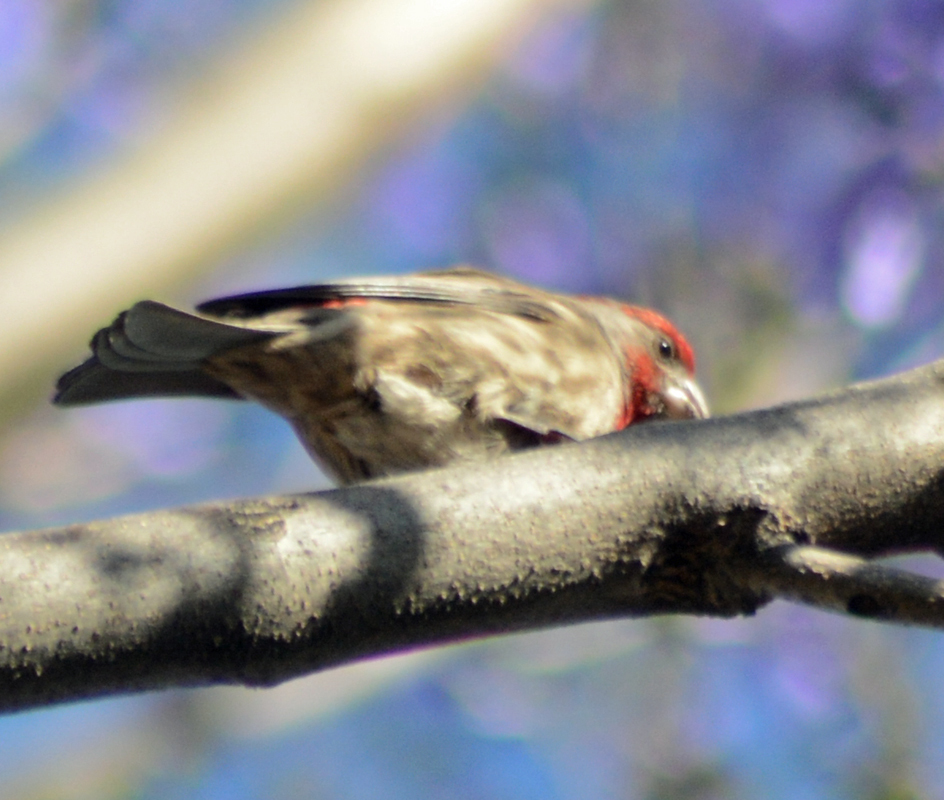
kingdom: Animalia
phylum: Chordata
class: Aves
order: Passeriformes
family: Fringillidae
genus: Haemorhous
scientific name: Haemorhous mexicanus
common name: House finch
